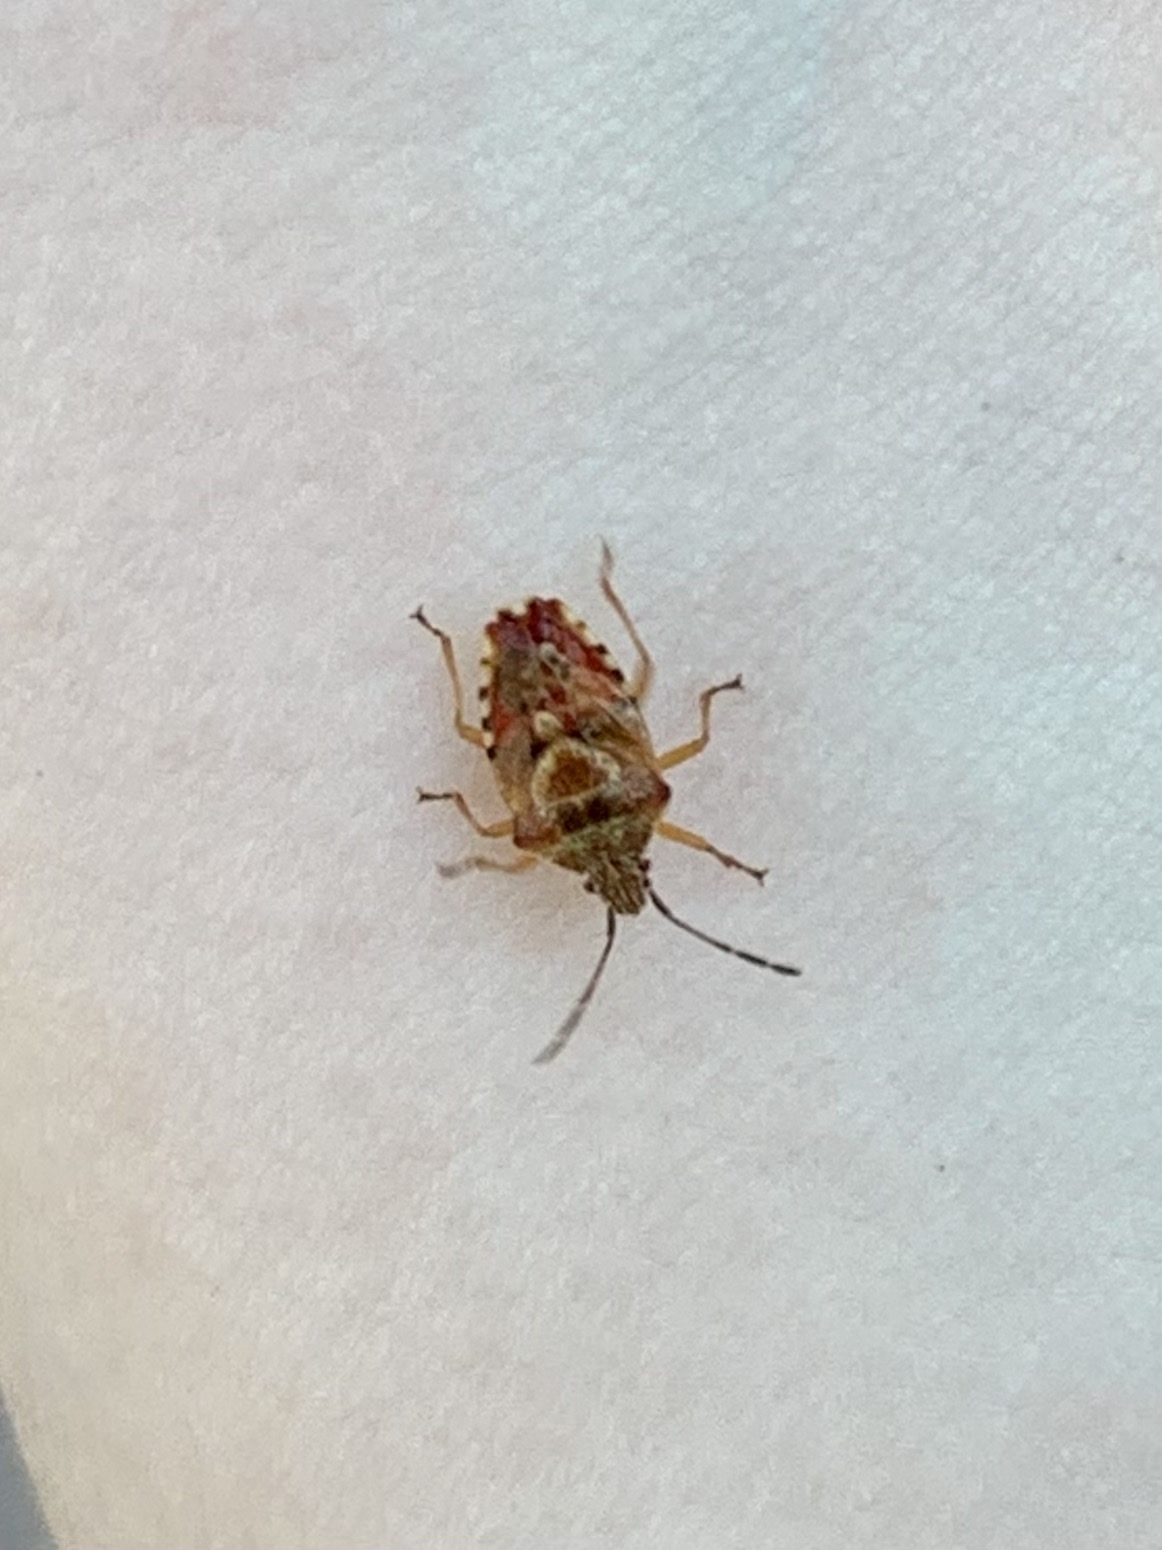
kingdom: Animalia
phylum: Arthropoda
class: Insecta
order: Hemiptera
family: Acanthosomatidae
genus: Elasmucha
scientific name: Elasmucha lateralis
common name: Shield bug
